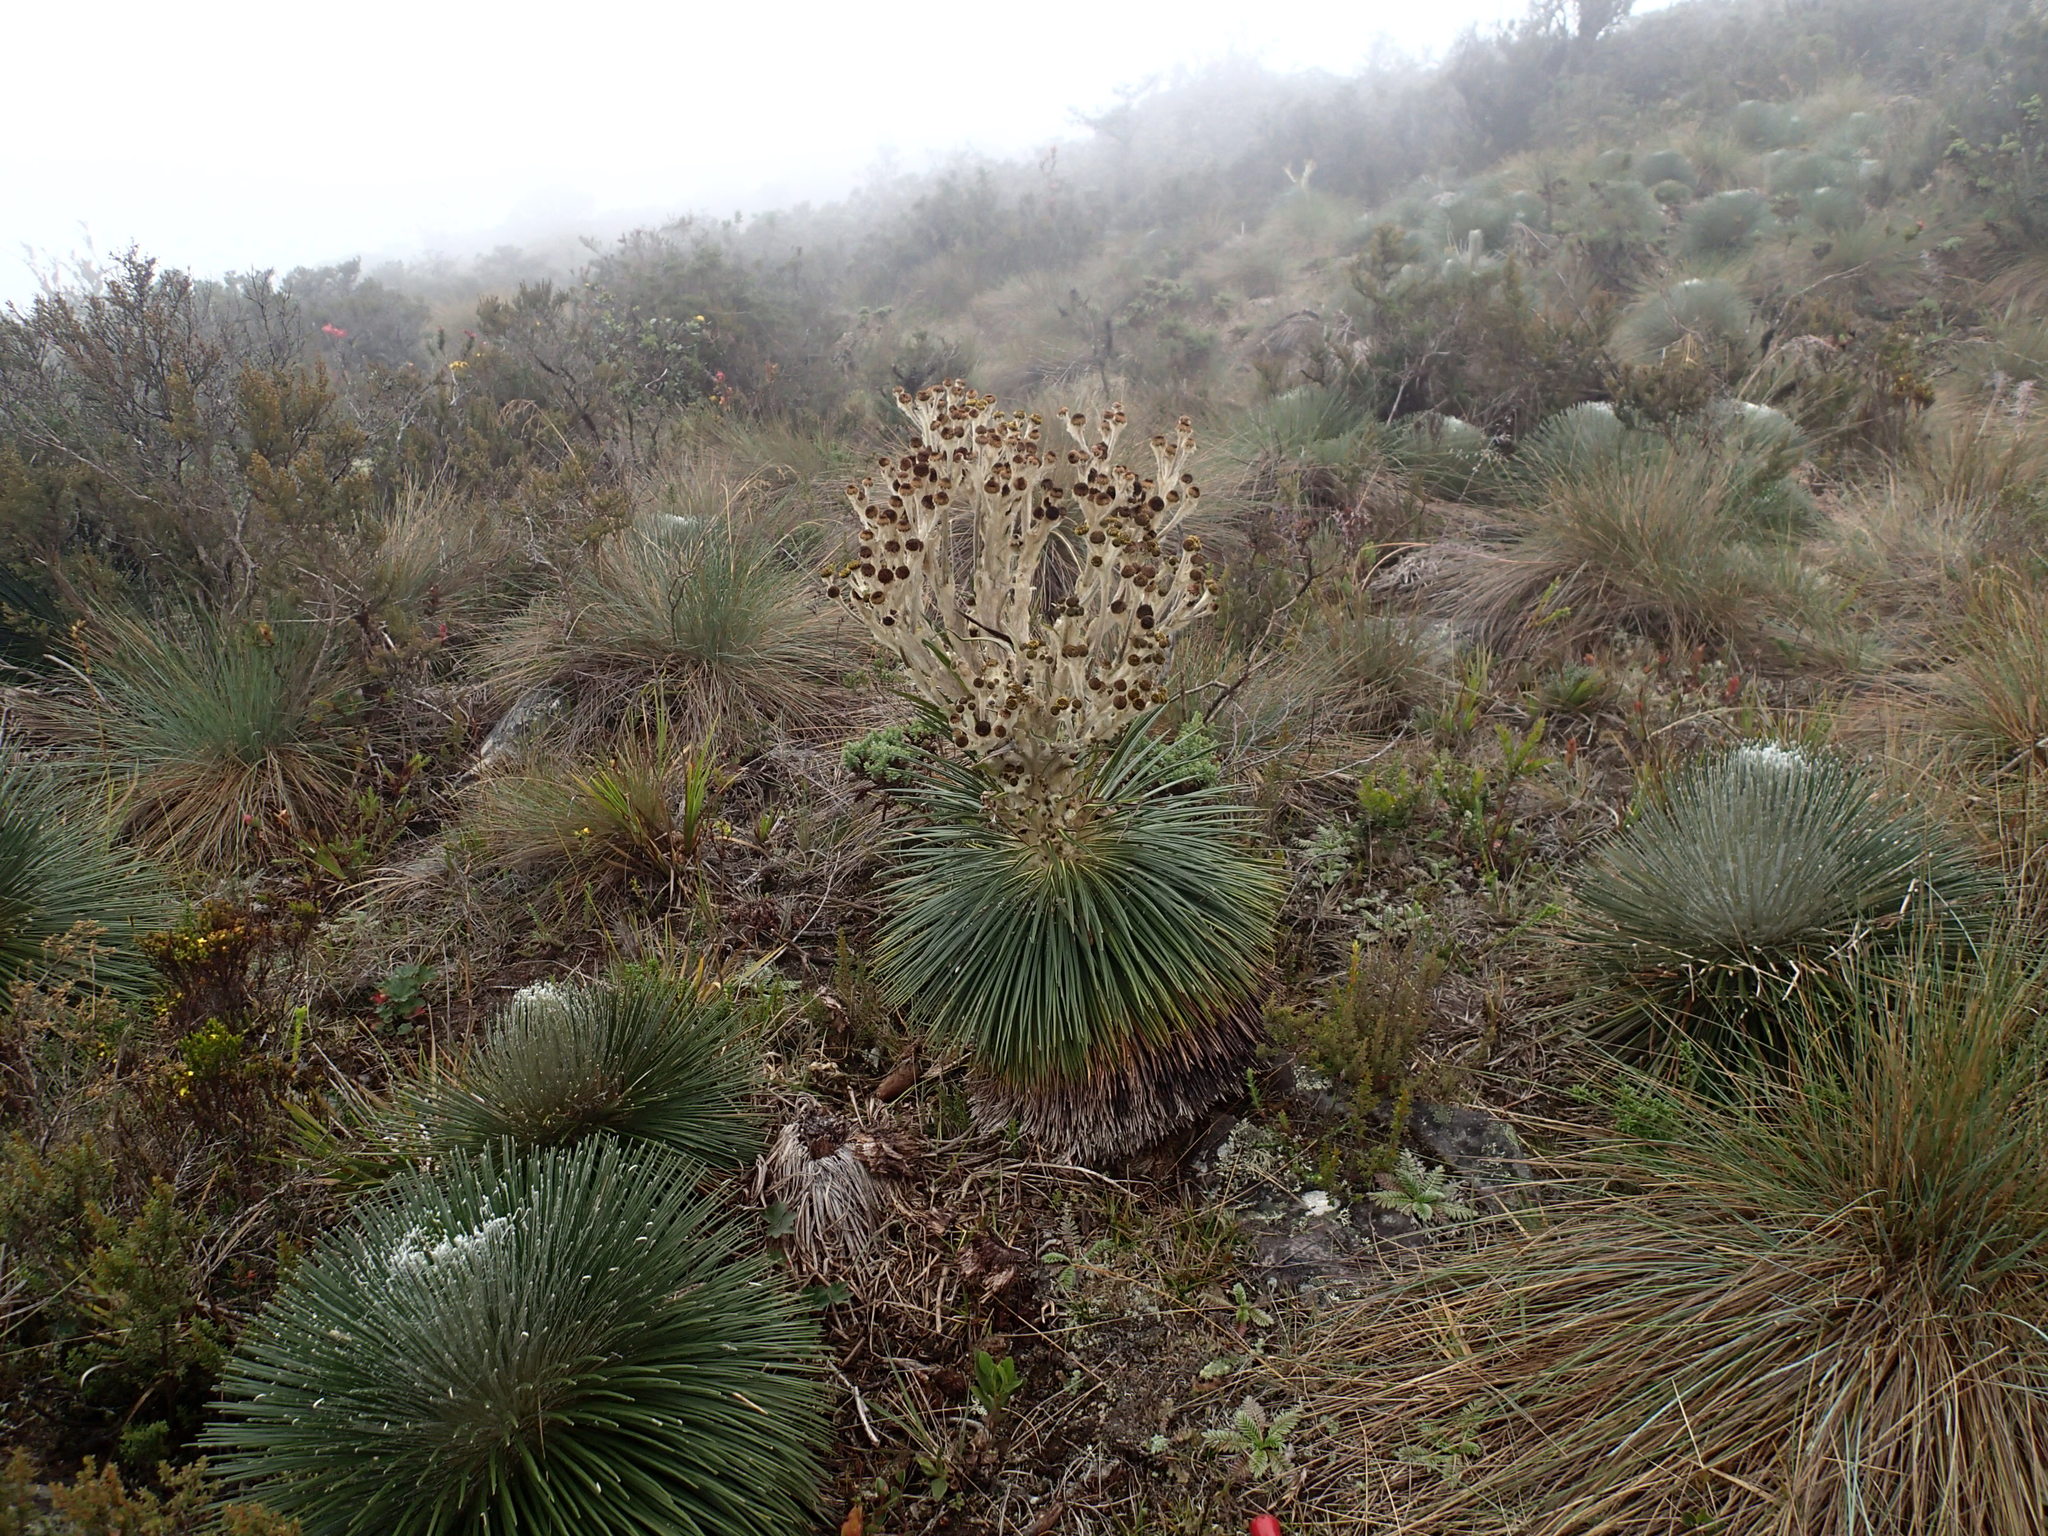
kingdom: Plantae
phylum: Tracheophyta
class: Magnoliopsida
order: Asterales
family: Asteraceae
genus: Espeletia
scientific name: Espeletia jahnii
